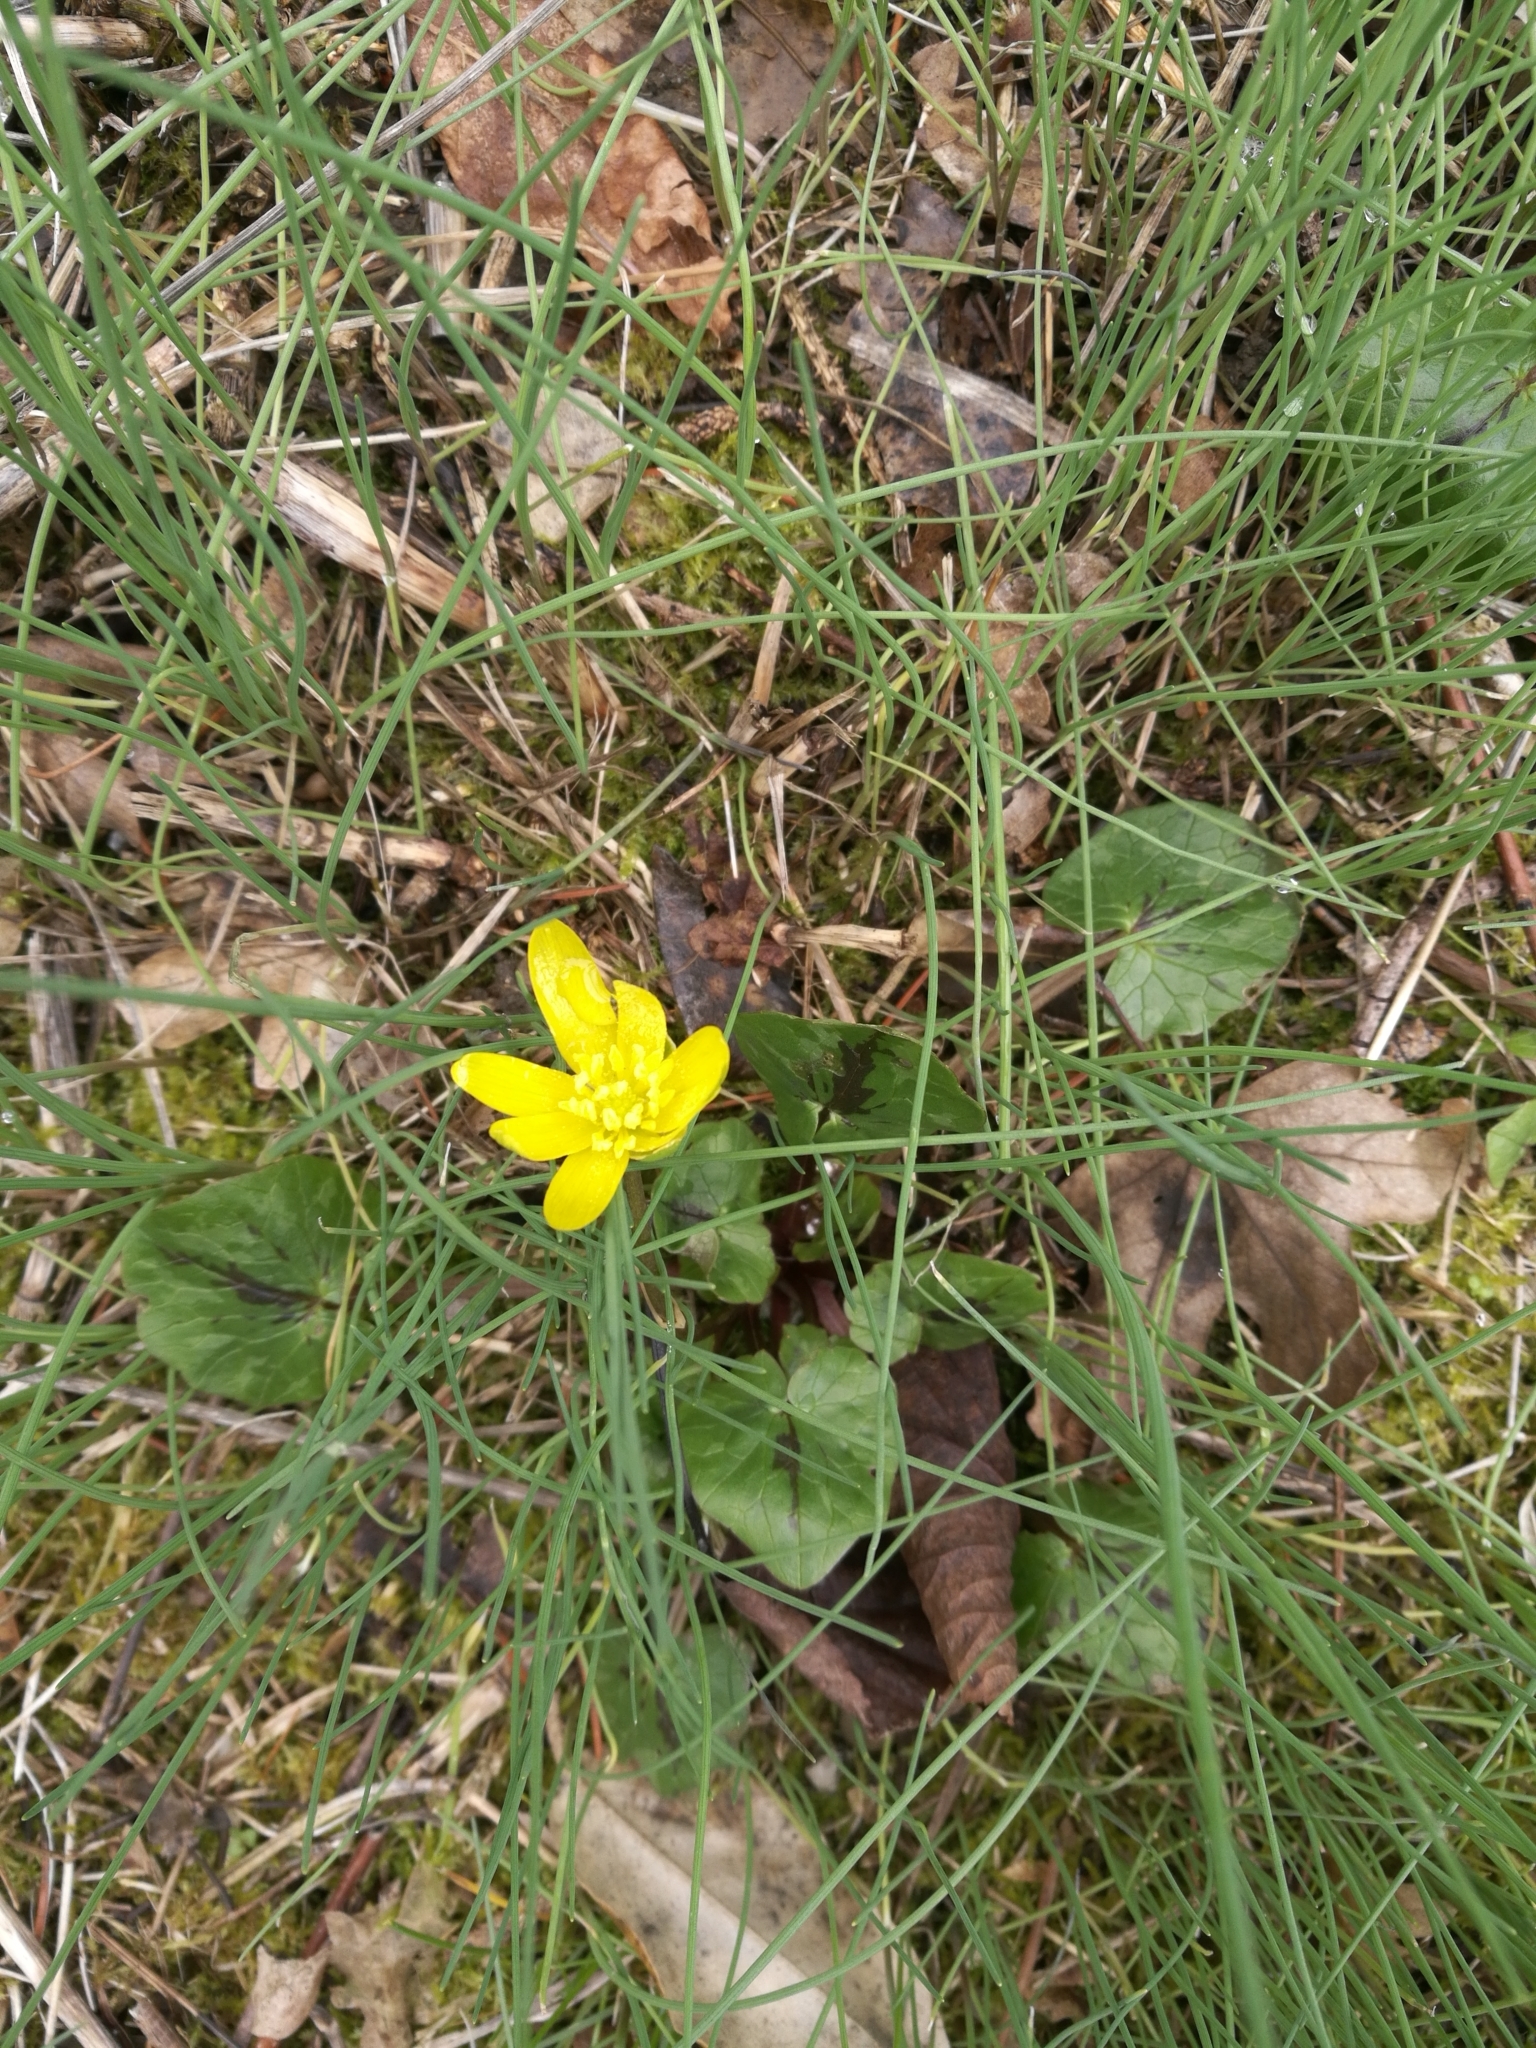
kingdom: Plantae
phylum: Tracheophyta
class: Magnoliopsida
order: Ranunculales
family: Ranunculaceae
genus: Ficaria
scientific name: Ficaria verna
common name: Lesser celandine
